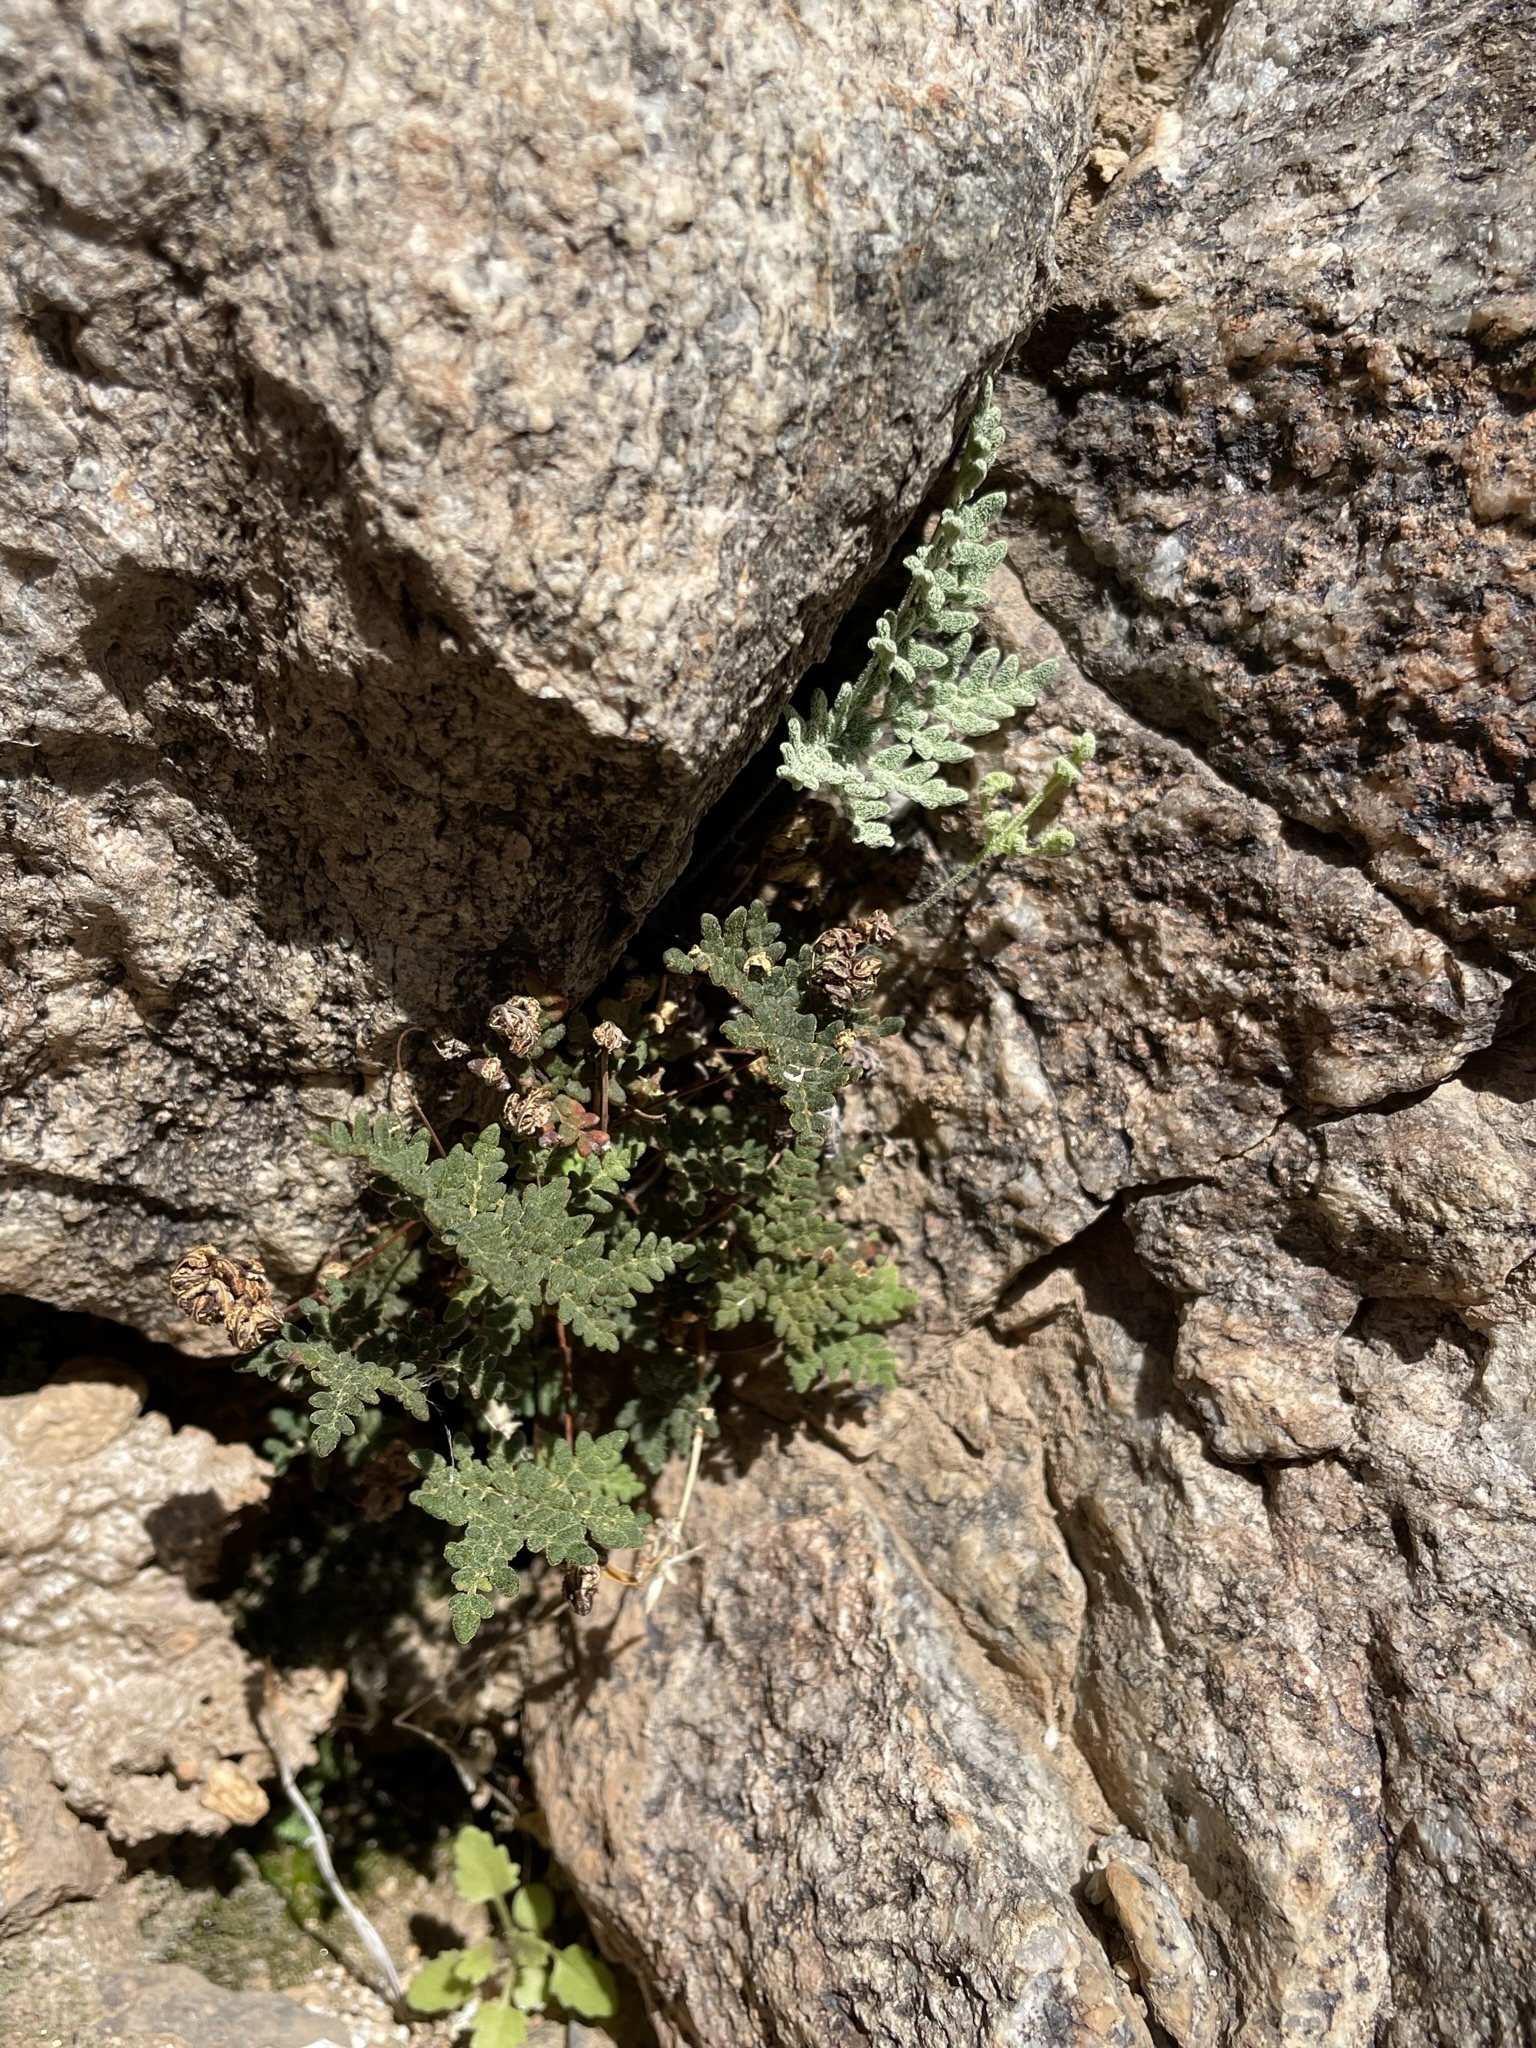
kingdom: Plantae
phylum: Tracheophyta
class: Polypodiopsida
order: Polypodiales
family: Pteridaceae
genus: Notholaena
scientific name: Notholaena californica
